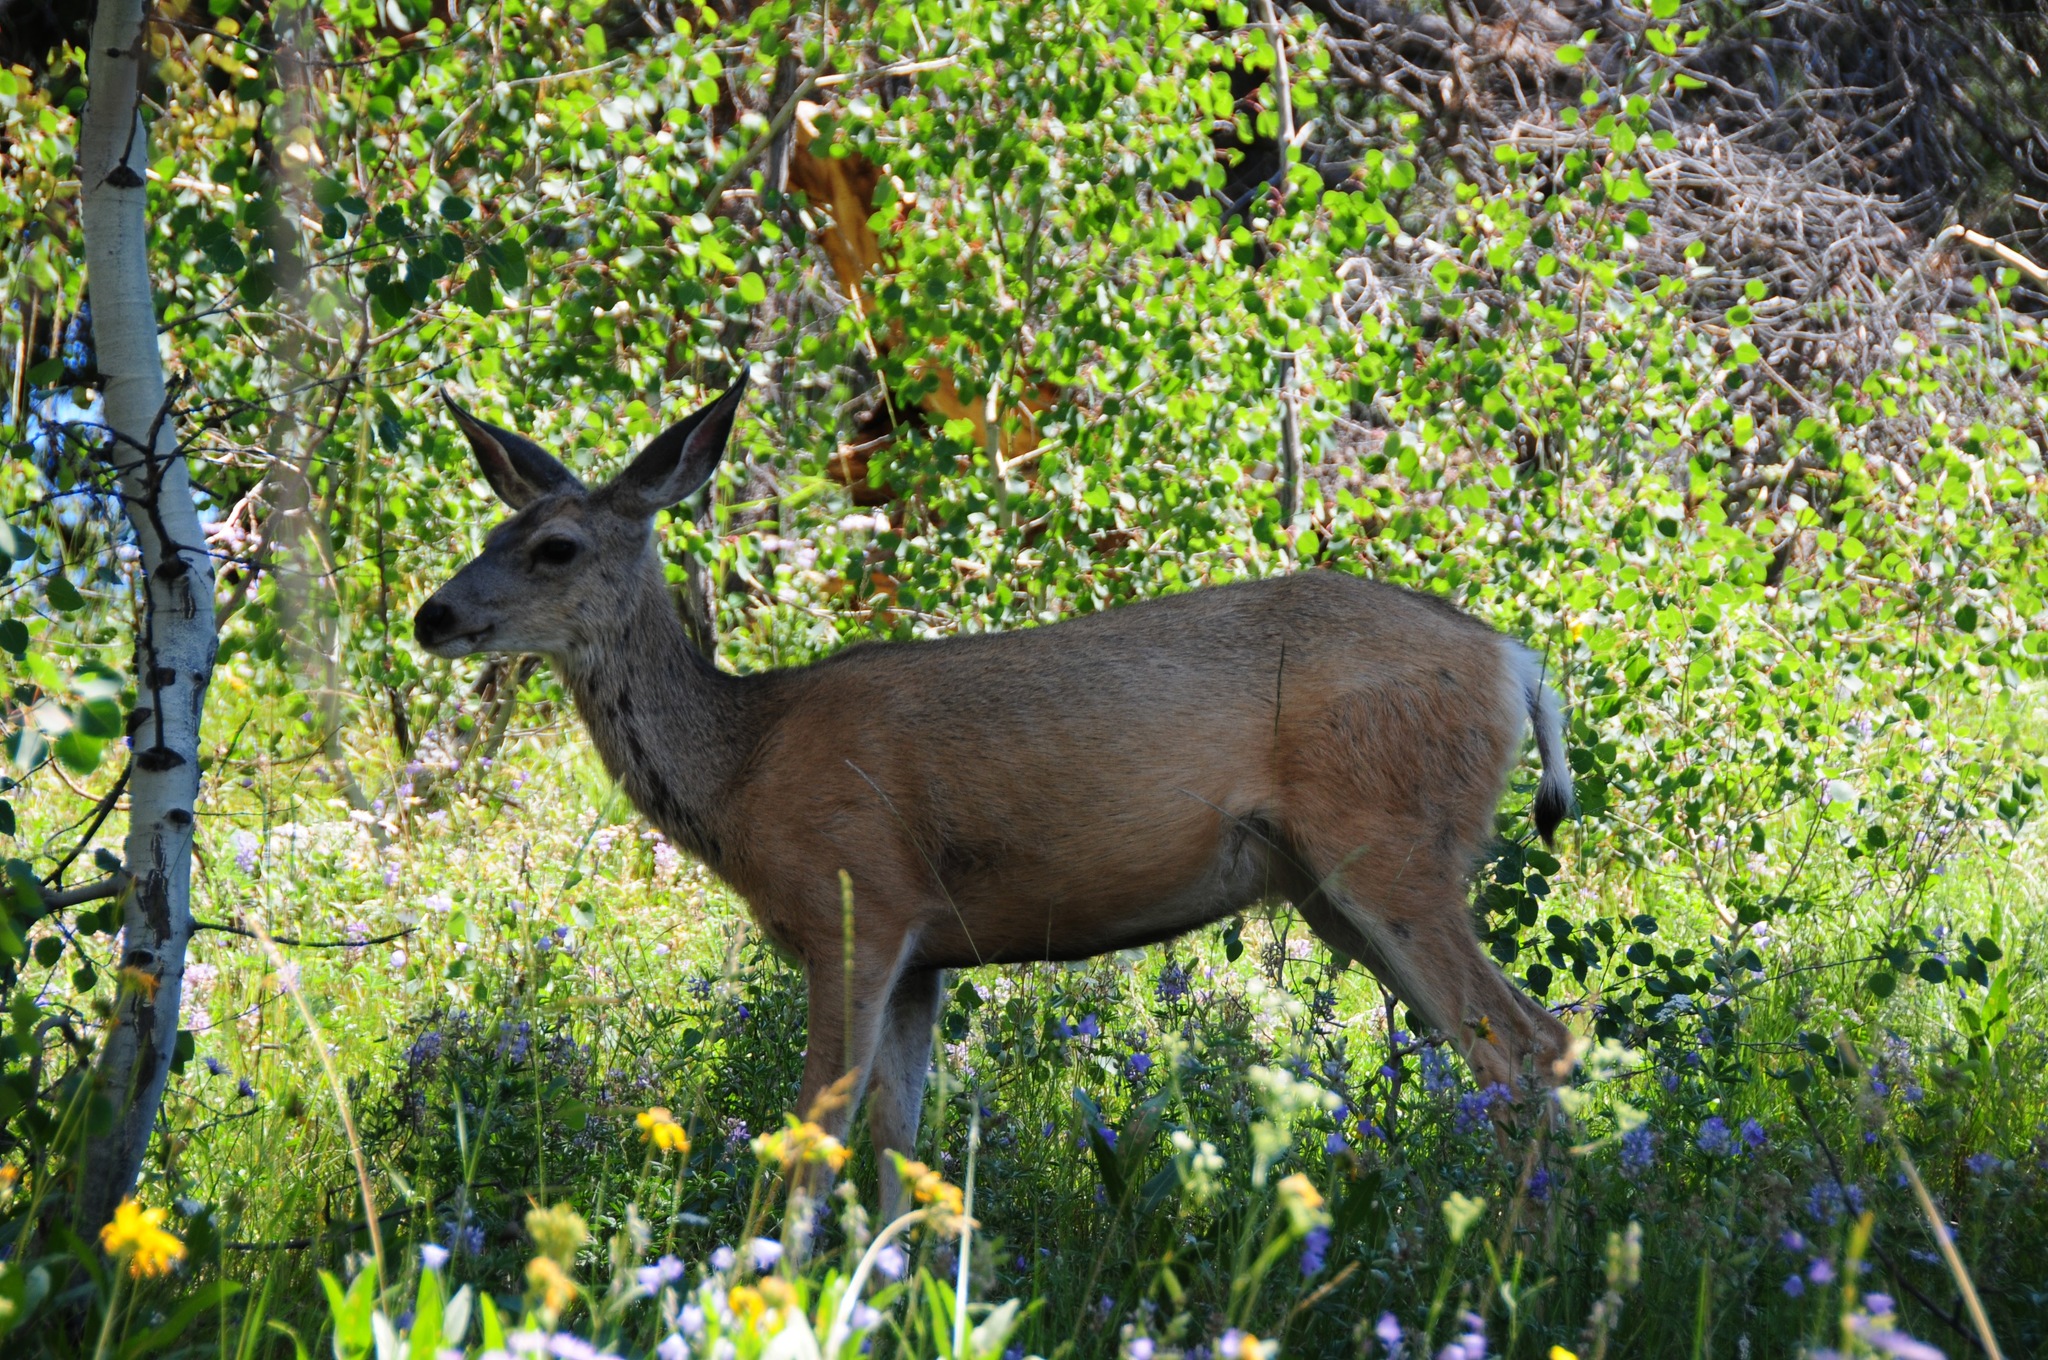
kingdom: Animalia
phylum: Chordata
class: Mammalia
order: Artiodactyla
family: Cervidae
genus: Odocoileus
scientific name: Odocoileus hemionus
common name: Mule deer
